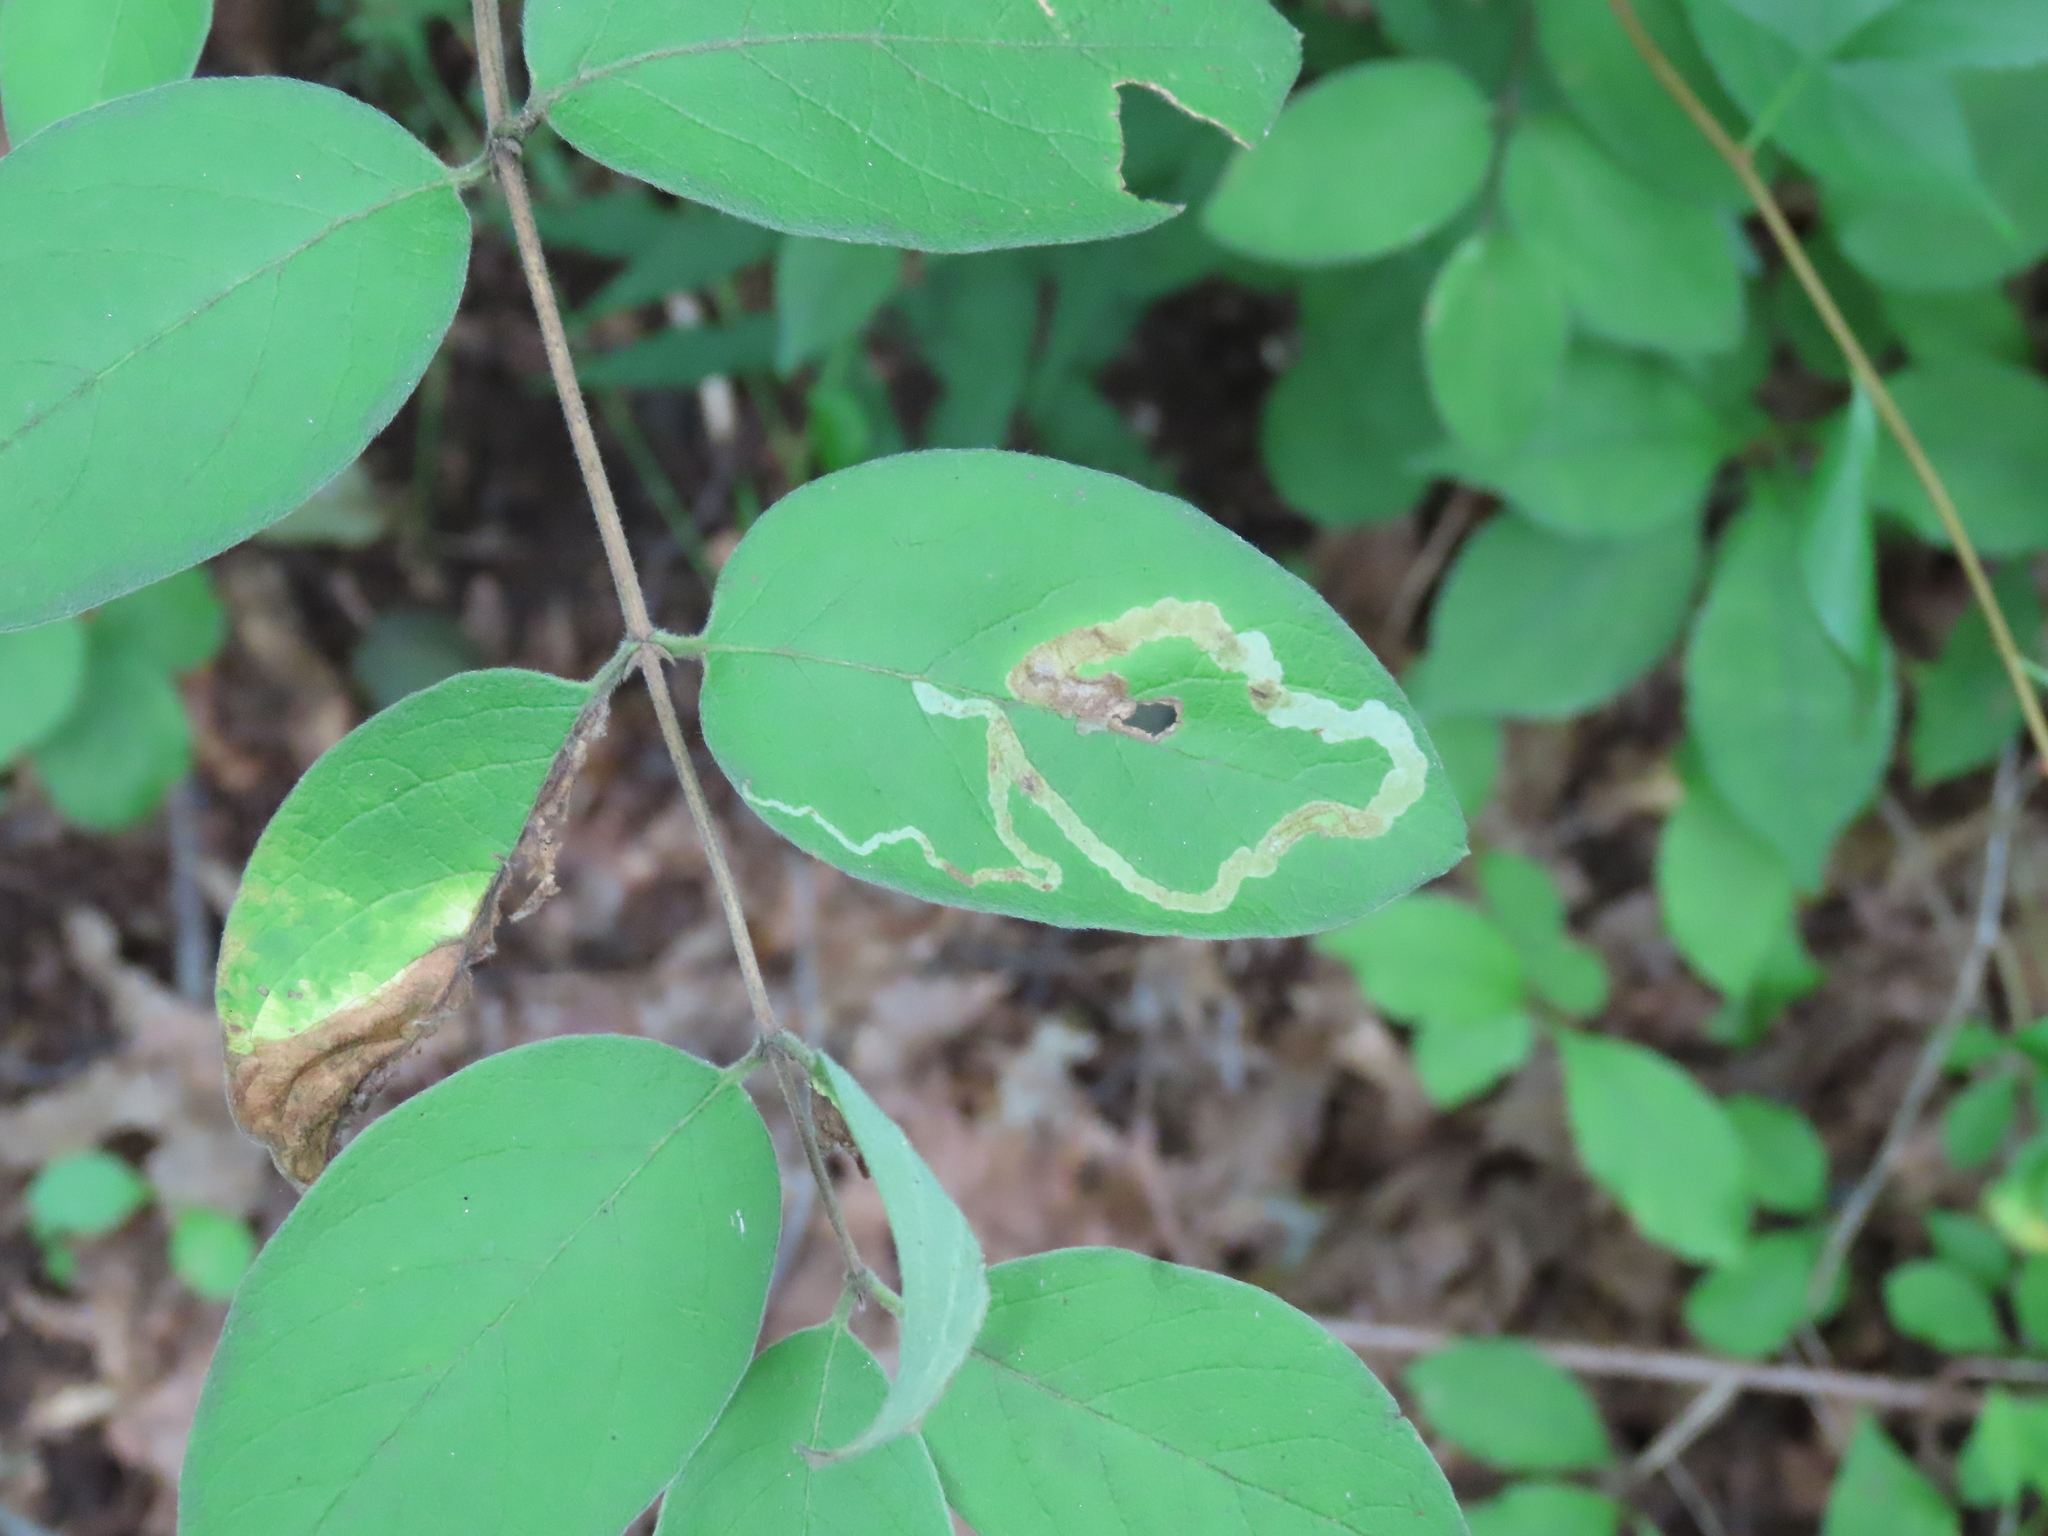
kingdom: Animalia
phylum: Arthropoda
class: Insecta
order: Diptera
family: Agromyzidae
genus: Aulagromyza
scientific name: Aulagromyza luteoscutellata
